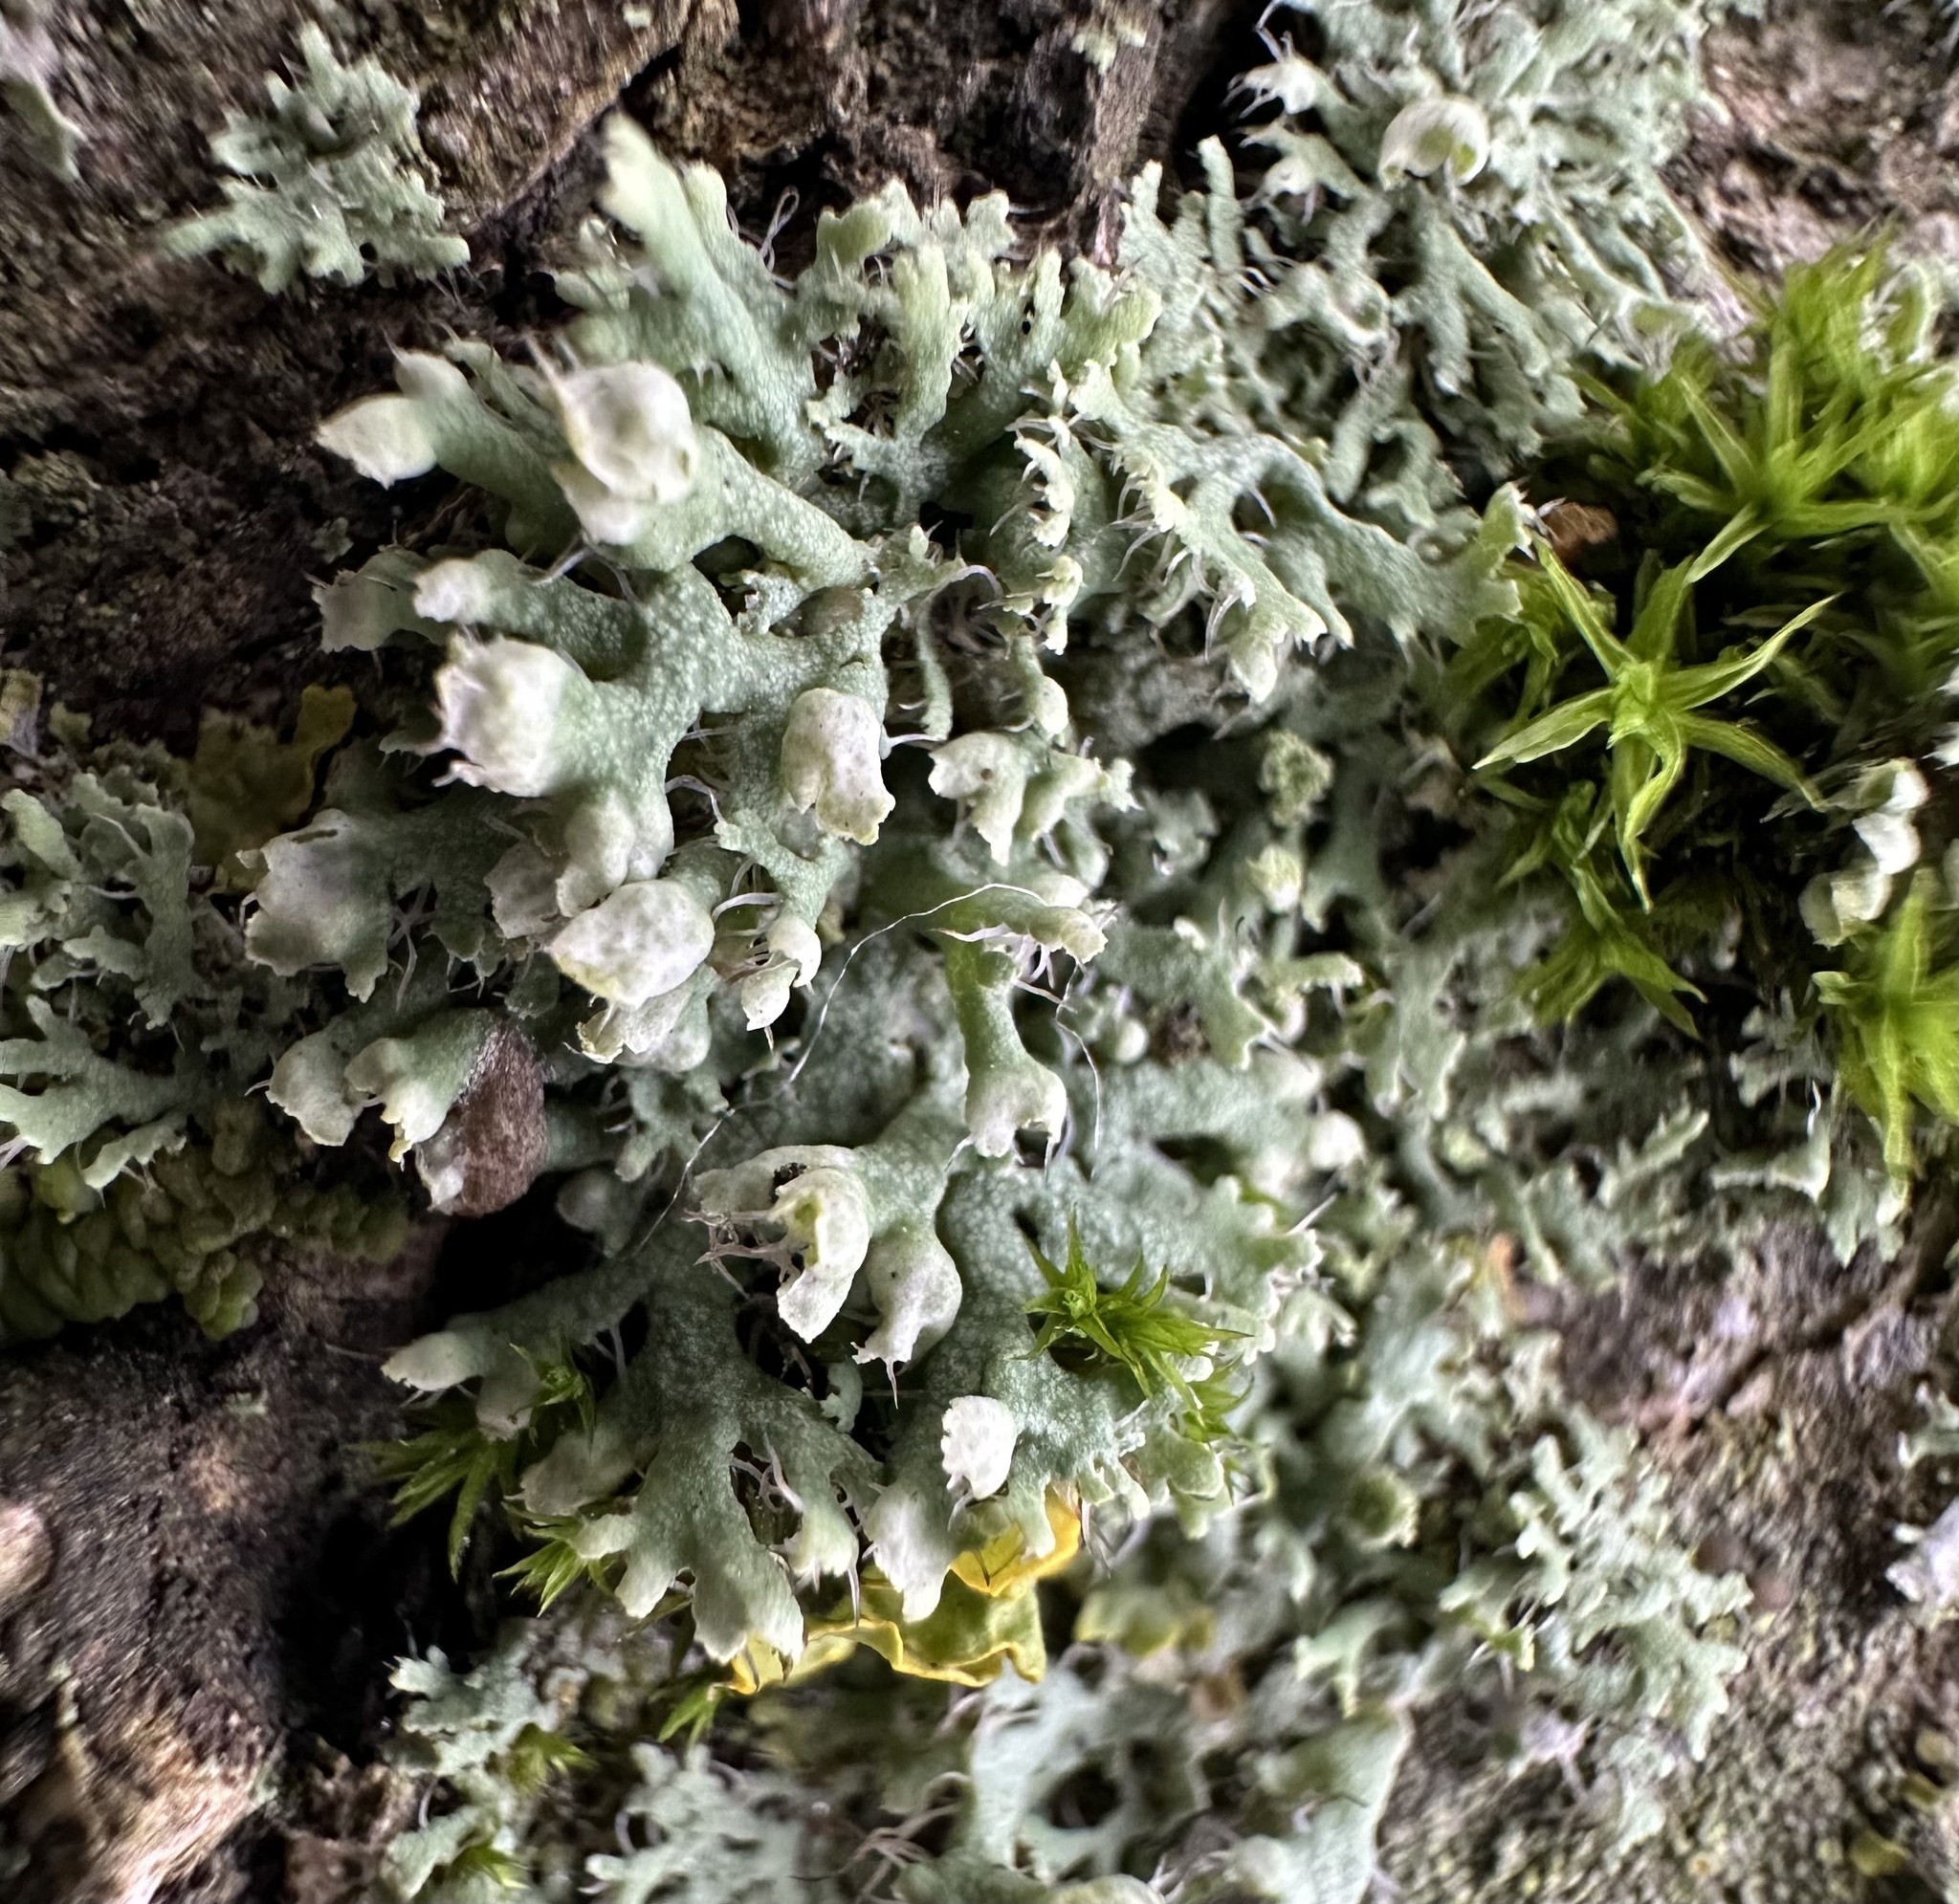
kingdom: Fungi
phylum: Ascomycota
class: Lecanoromycetes
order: Caliciales
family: Physciaceae
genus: Physcia
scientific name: Physcia adscendens
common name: Hooded rosette lichen
